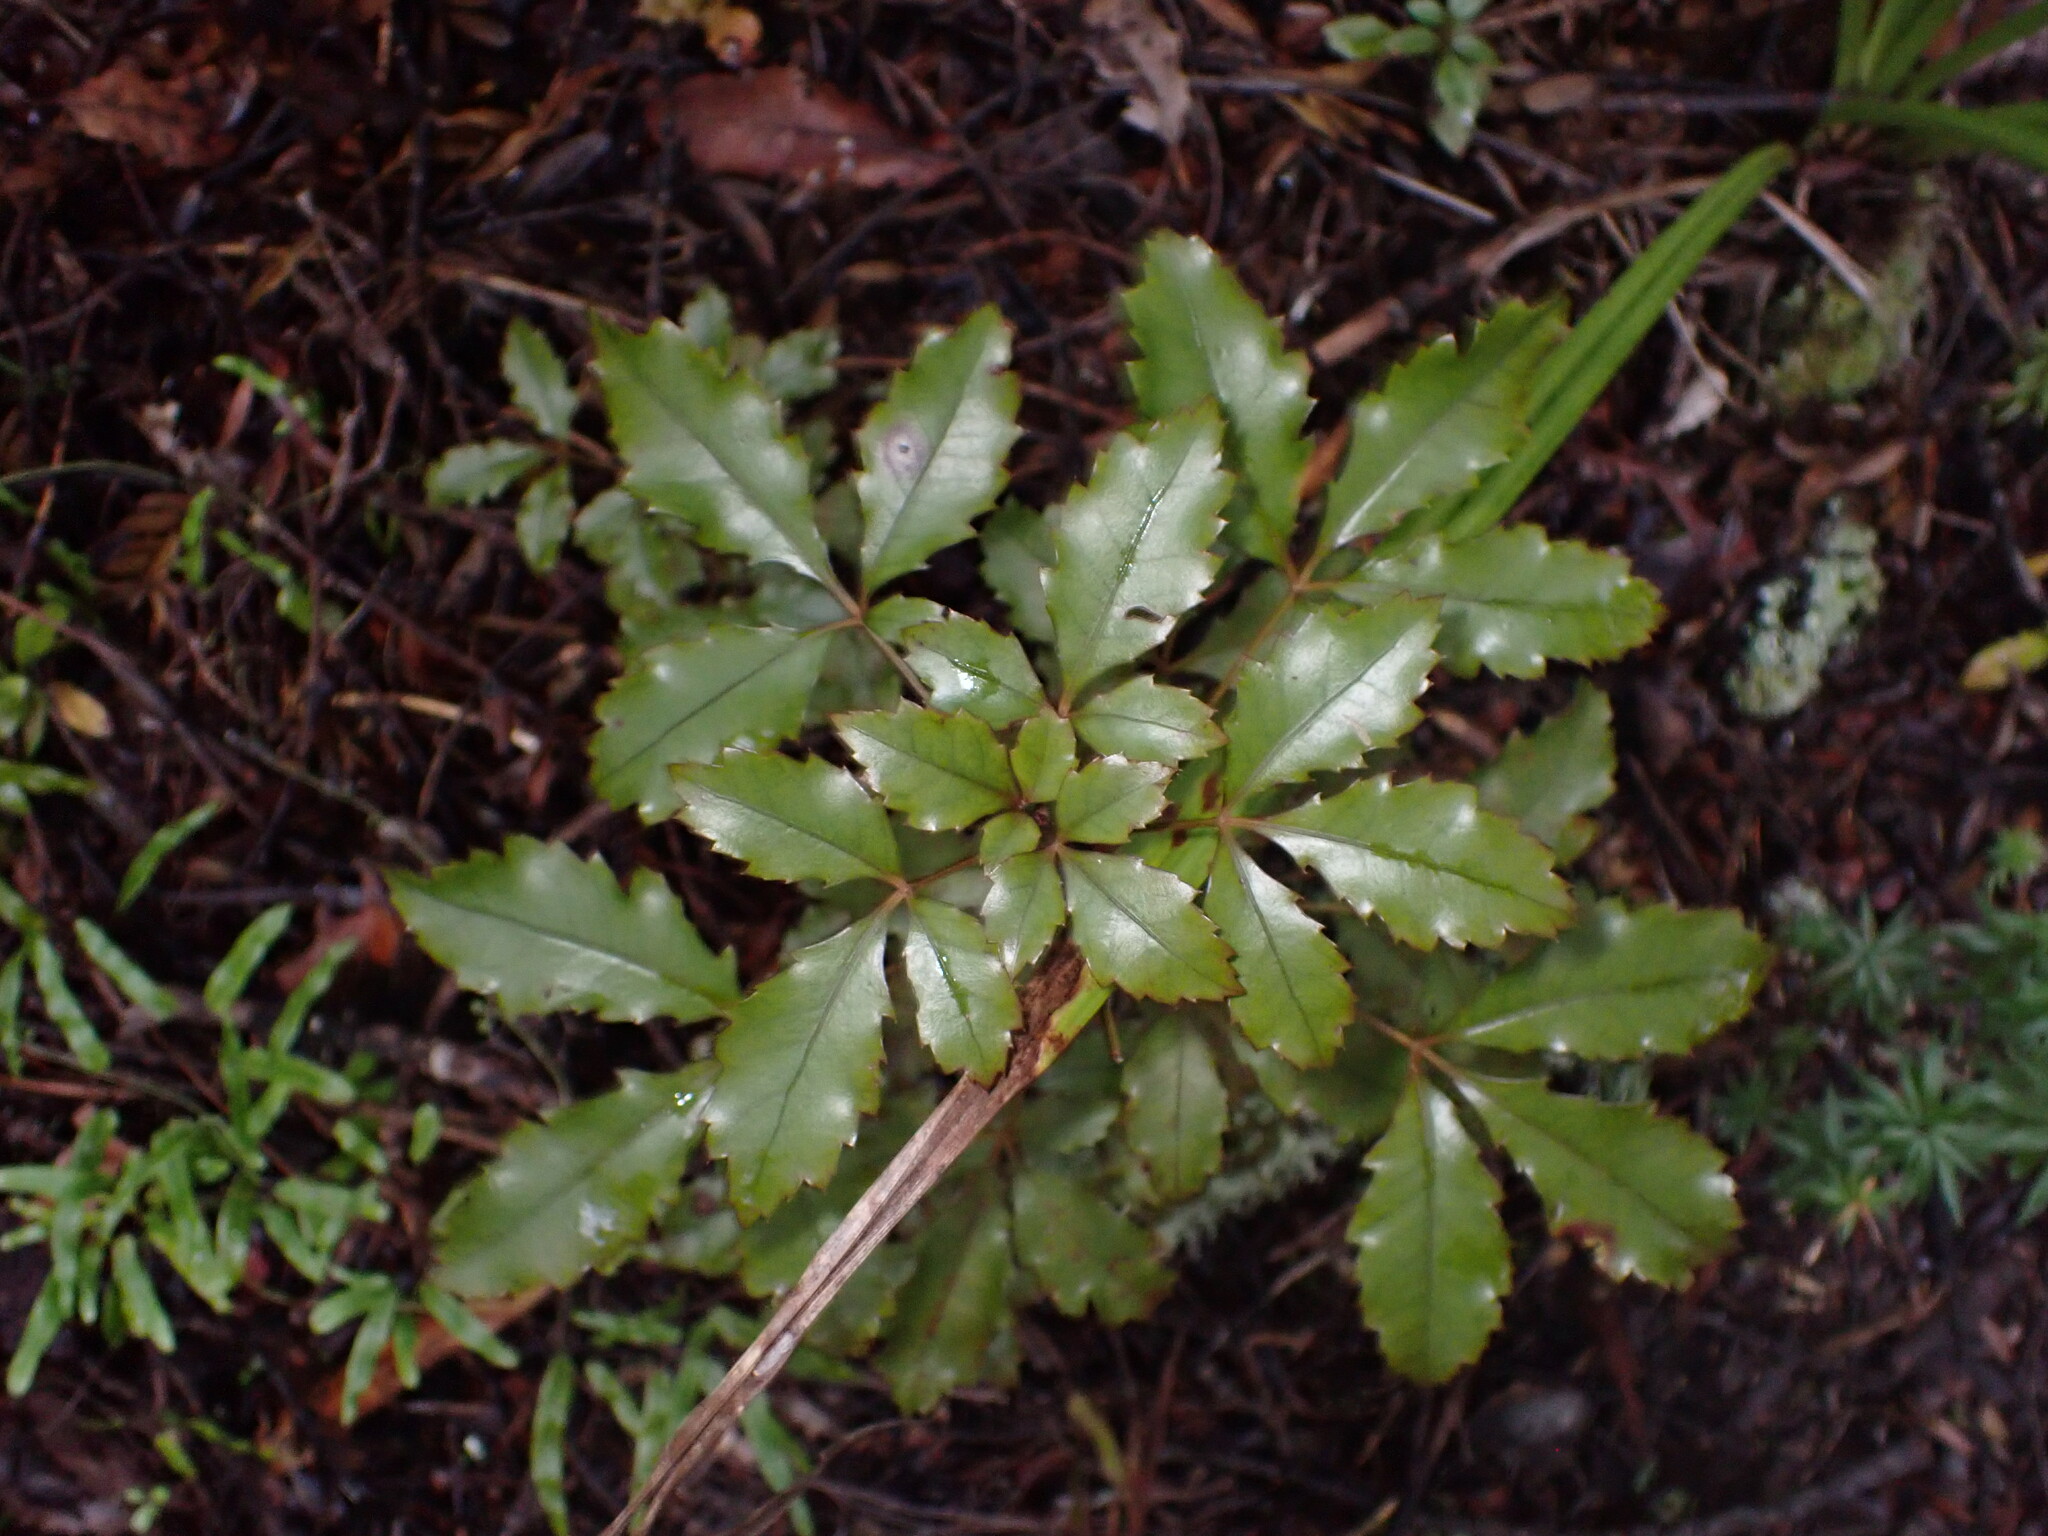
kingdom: Plantae
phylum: Tracheophyta
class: Magnoliopsida
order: Apiales
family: Araliaceae
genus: Pseudopanax
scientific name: Pseudopanax discolor
